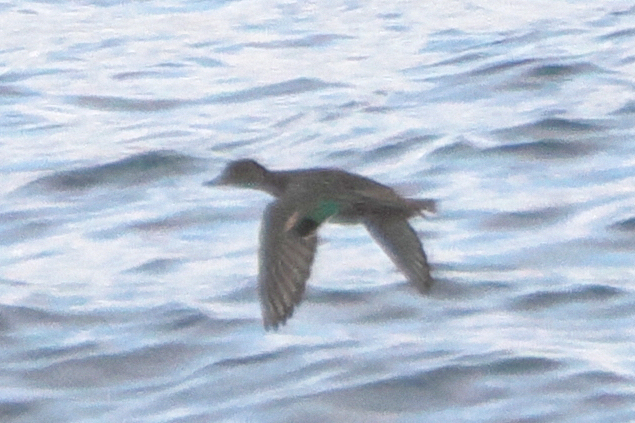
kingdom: Animalia
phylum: Chordata
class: Aves
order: Anseriformes
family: Anatidae
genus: Anas
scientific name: Anas crecca
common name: Eurasian teal
